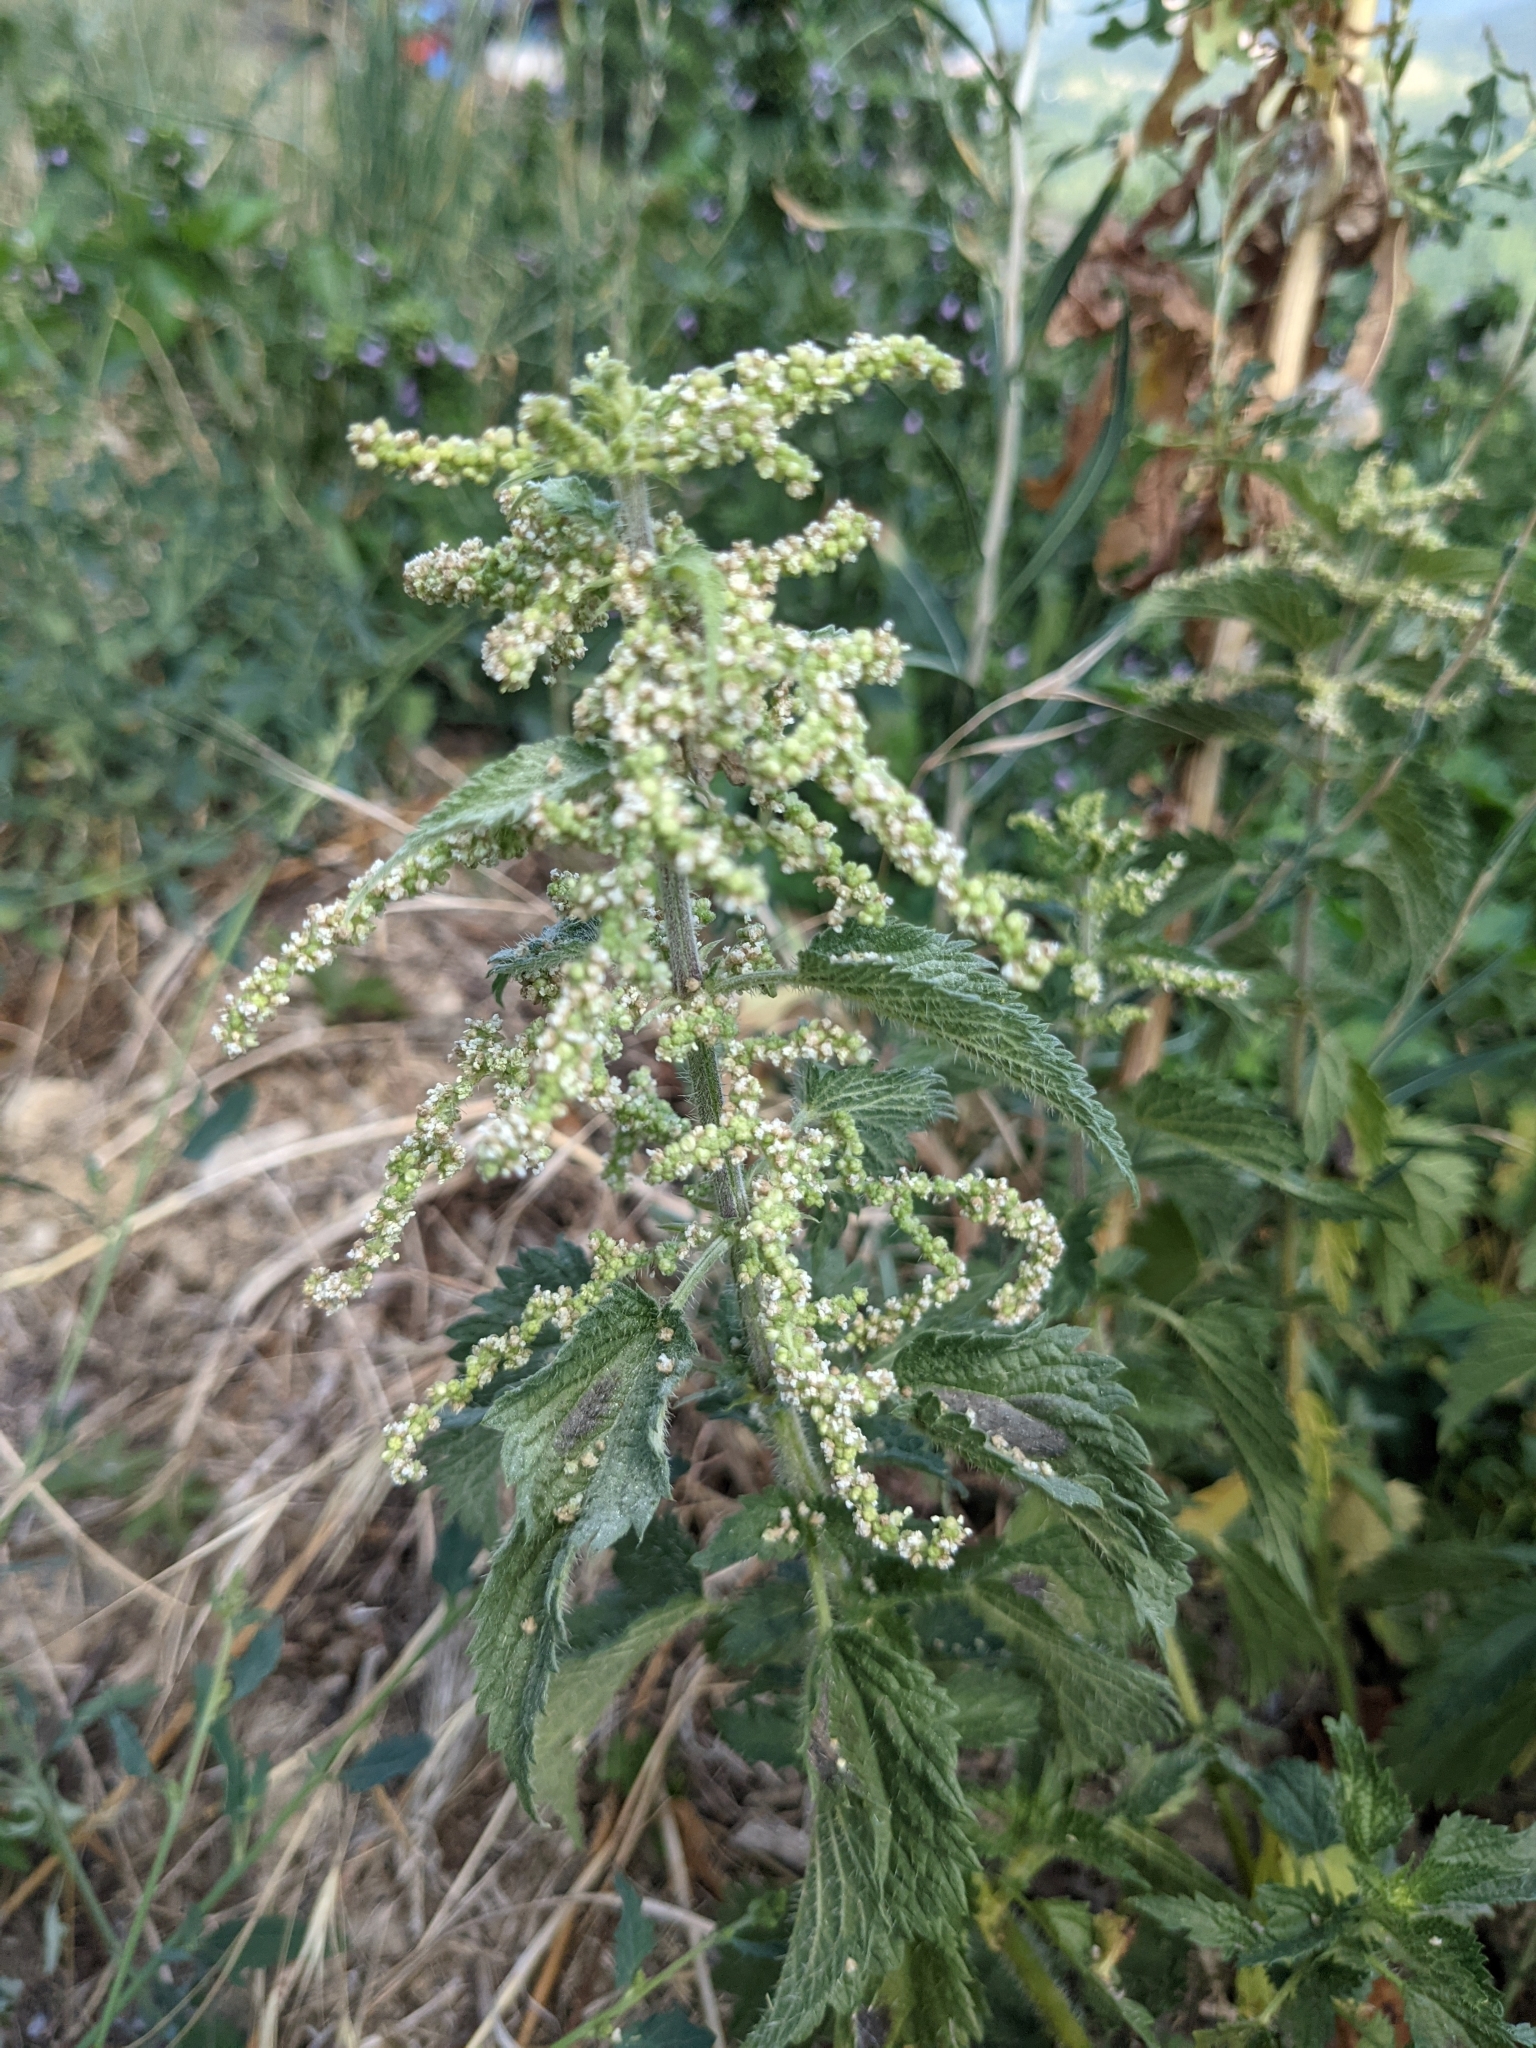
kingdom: Plantae
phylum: Tracheophyta
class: Magnoliopsida
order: Rosales
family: Urticaceae
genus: Urtica
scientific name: Urtica dioica
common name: Common nettle
